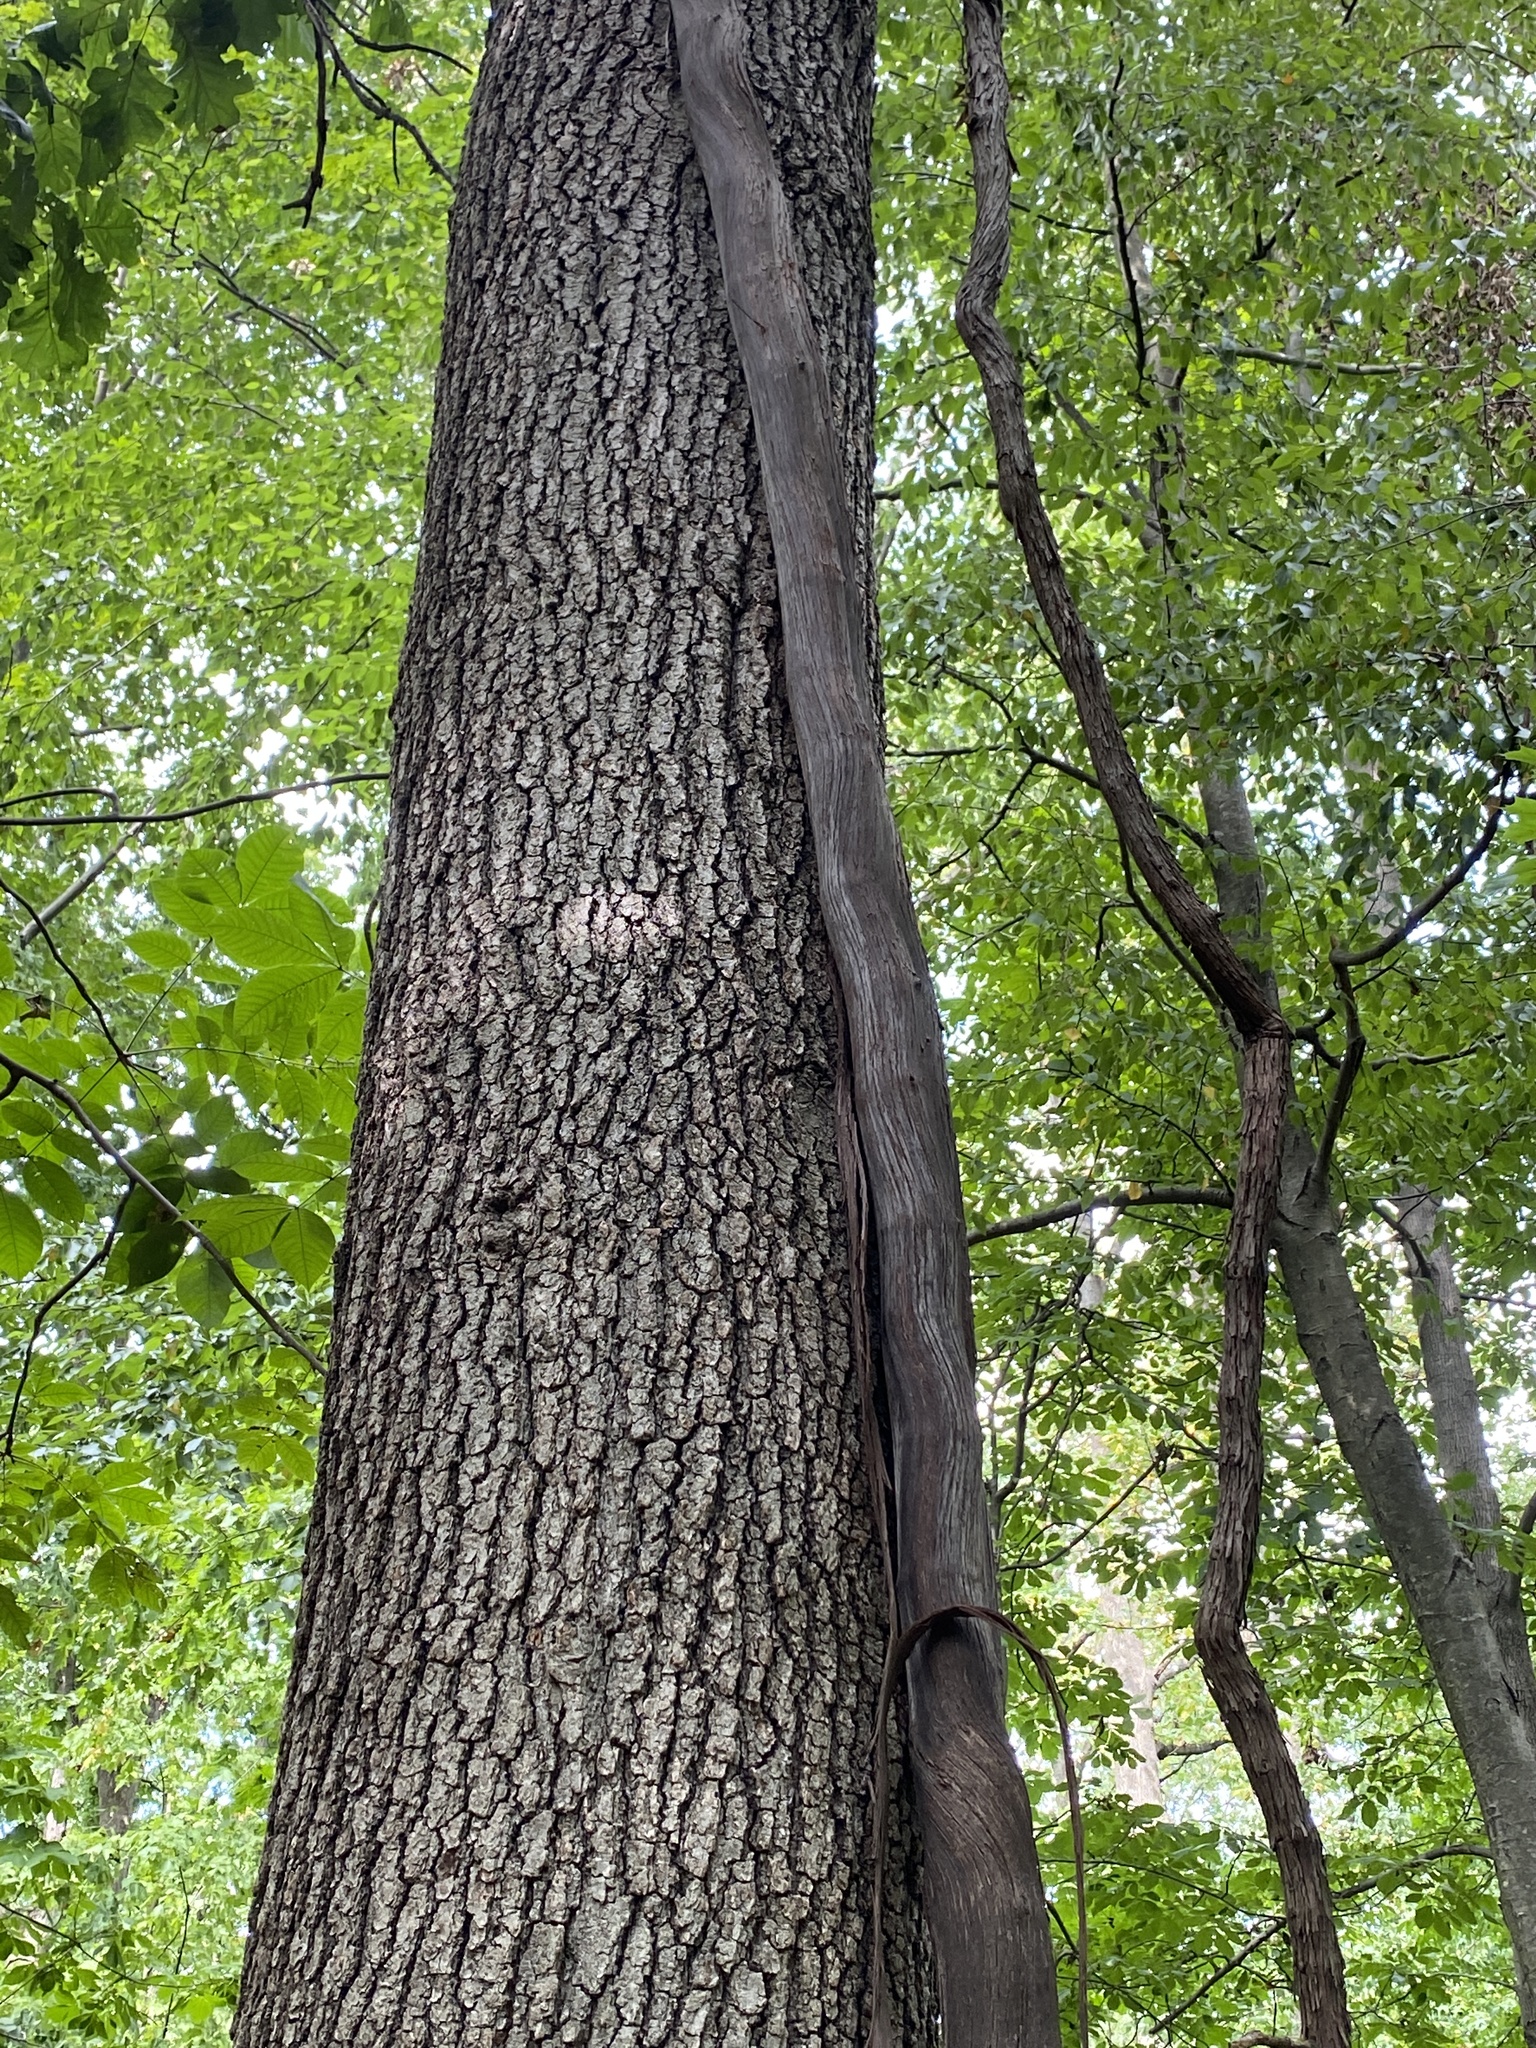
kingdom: Plantae
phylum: Tracheophyta
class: Magnoliopsida
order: Vitales
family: Vitaceae
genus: Vitis
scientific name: Vitis
